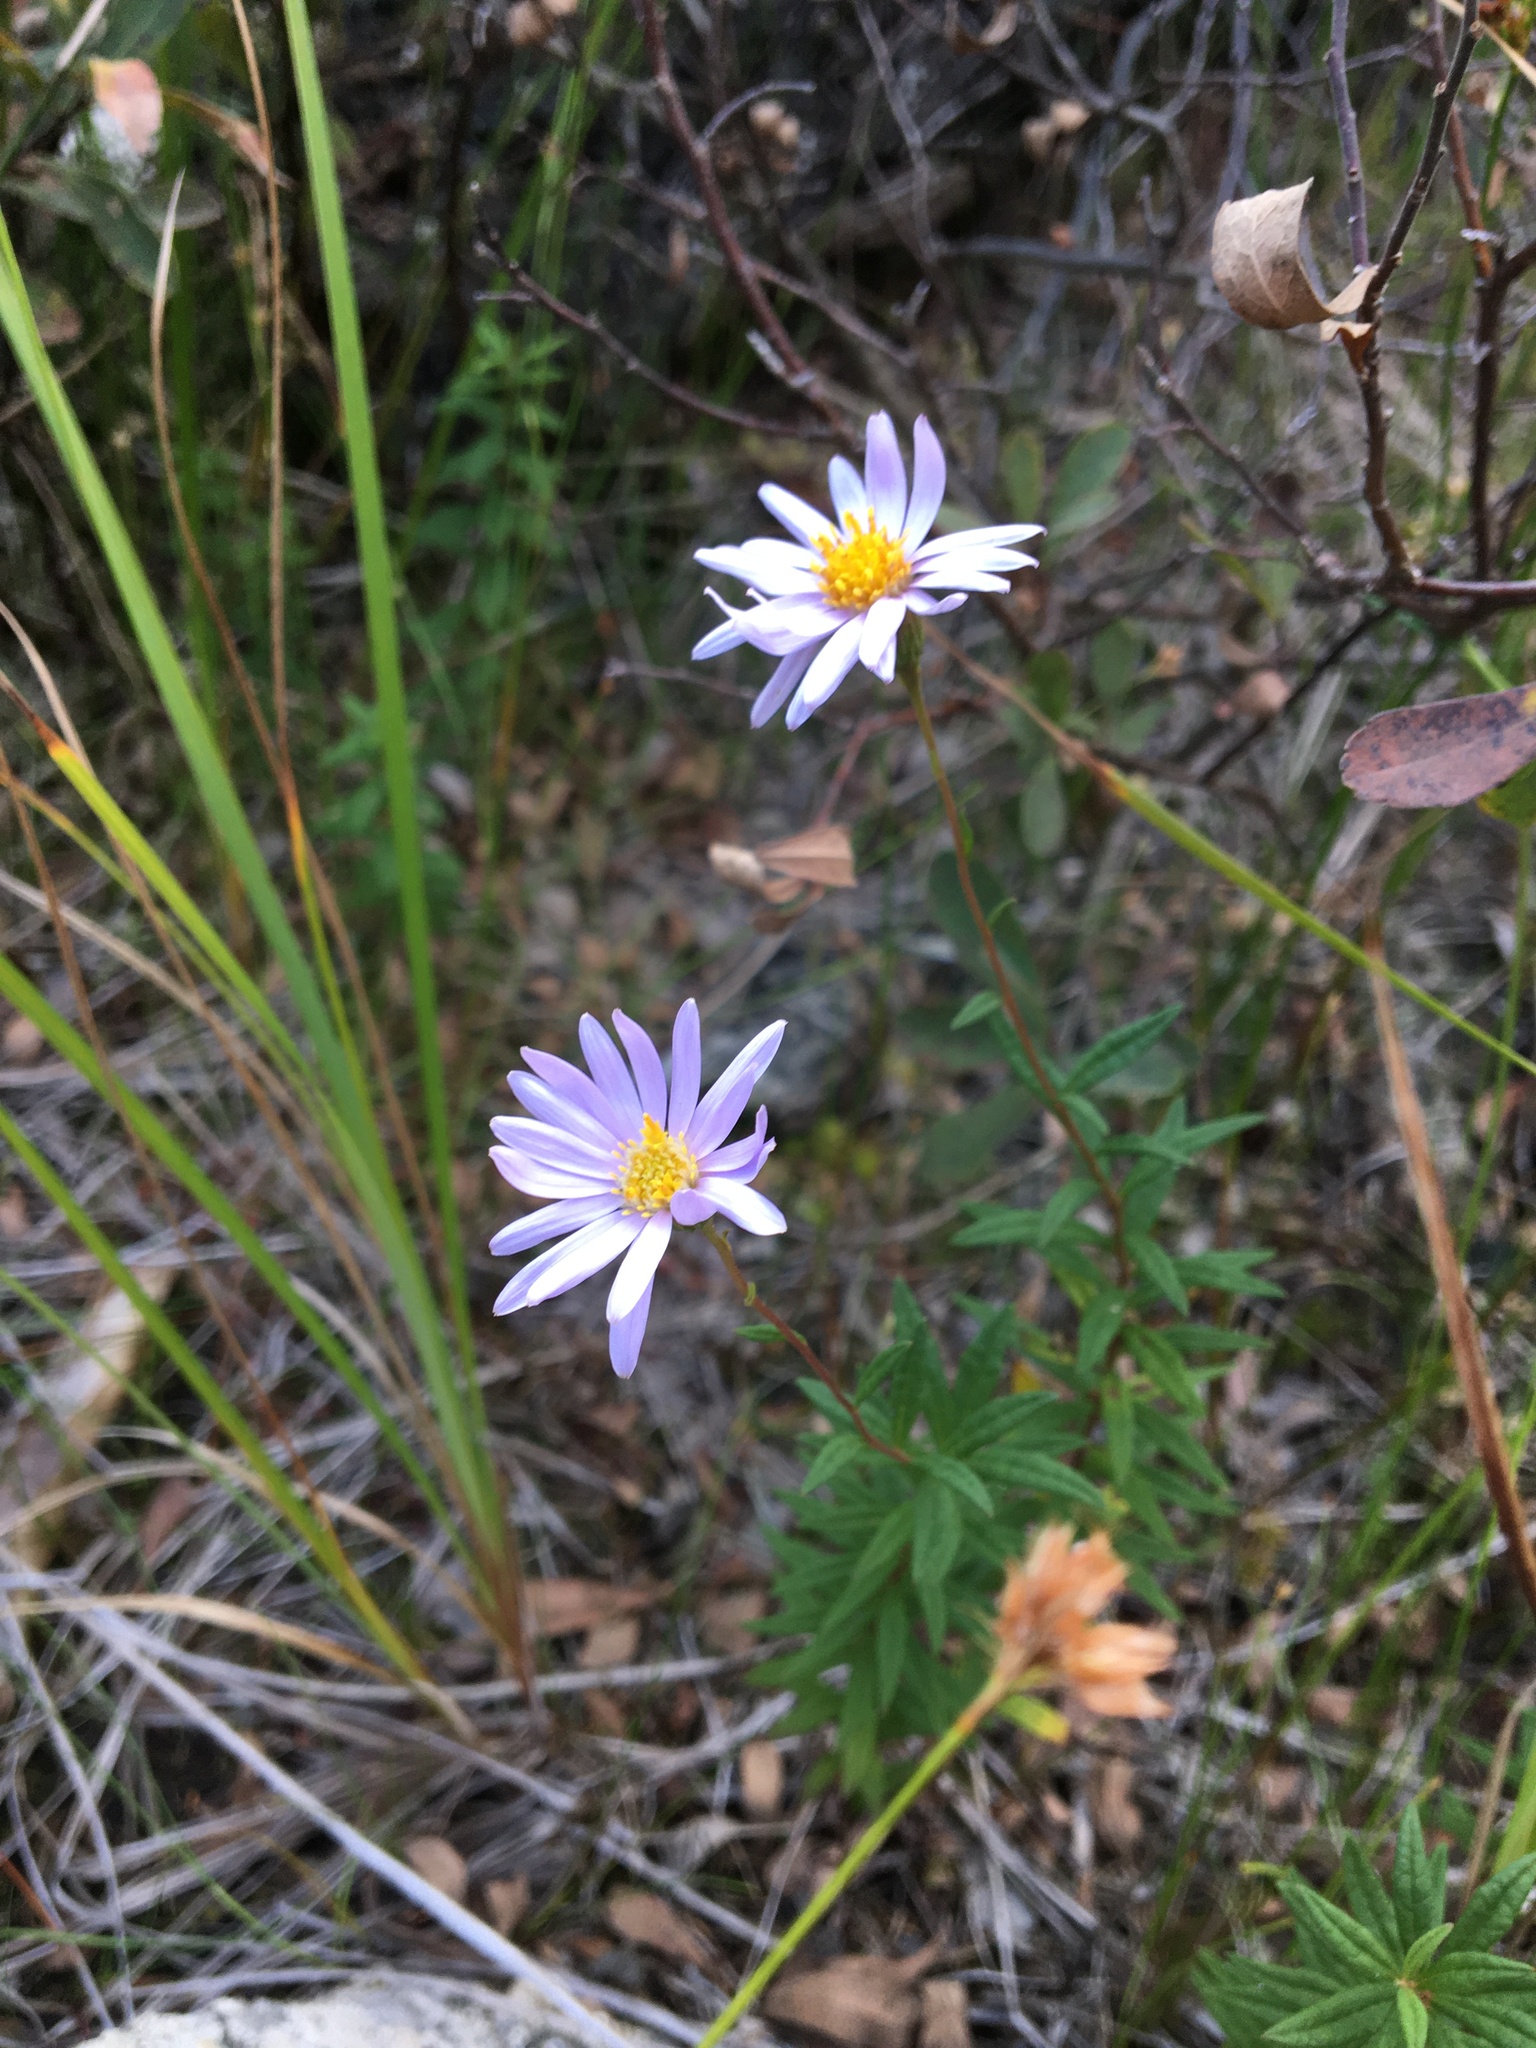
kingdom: Plantae
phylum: Tracheophyta
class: Magnoliopsida
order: Asterales
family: Asteraceae
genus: Oclemena
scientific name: Oclemena nemoralis
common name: Bog aster
